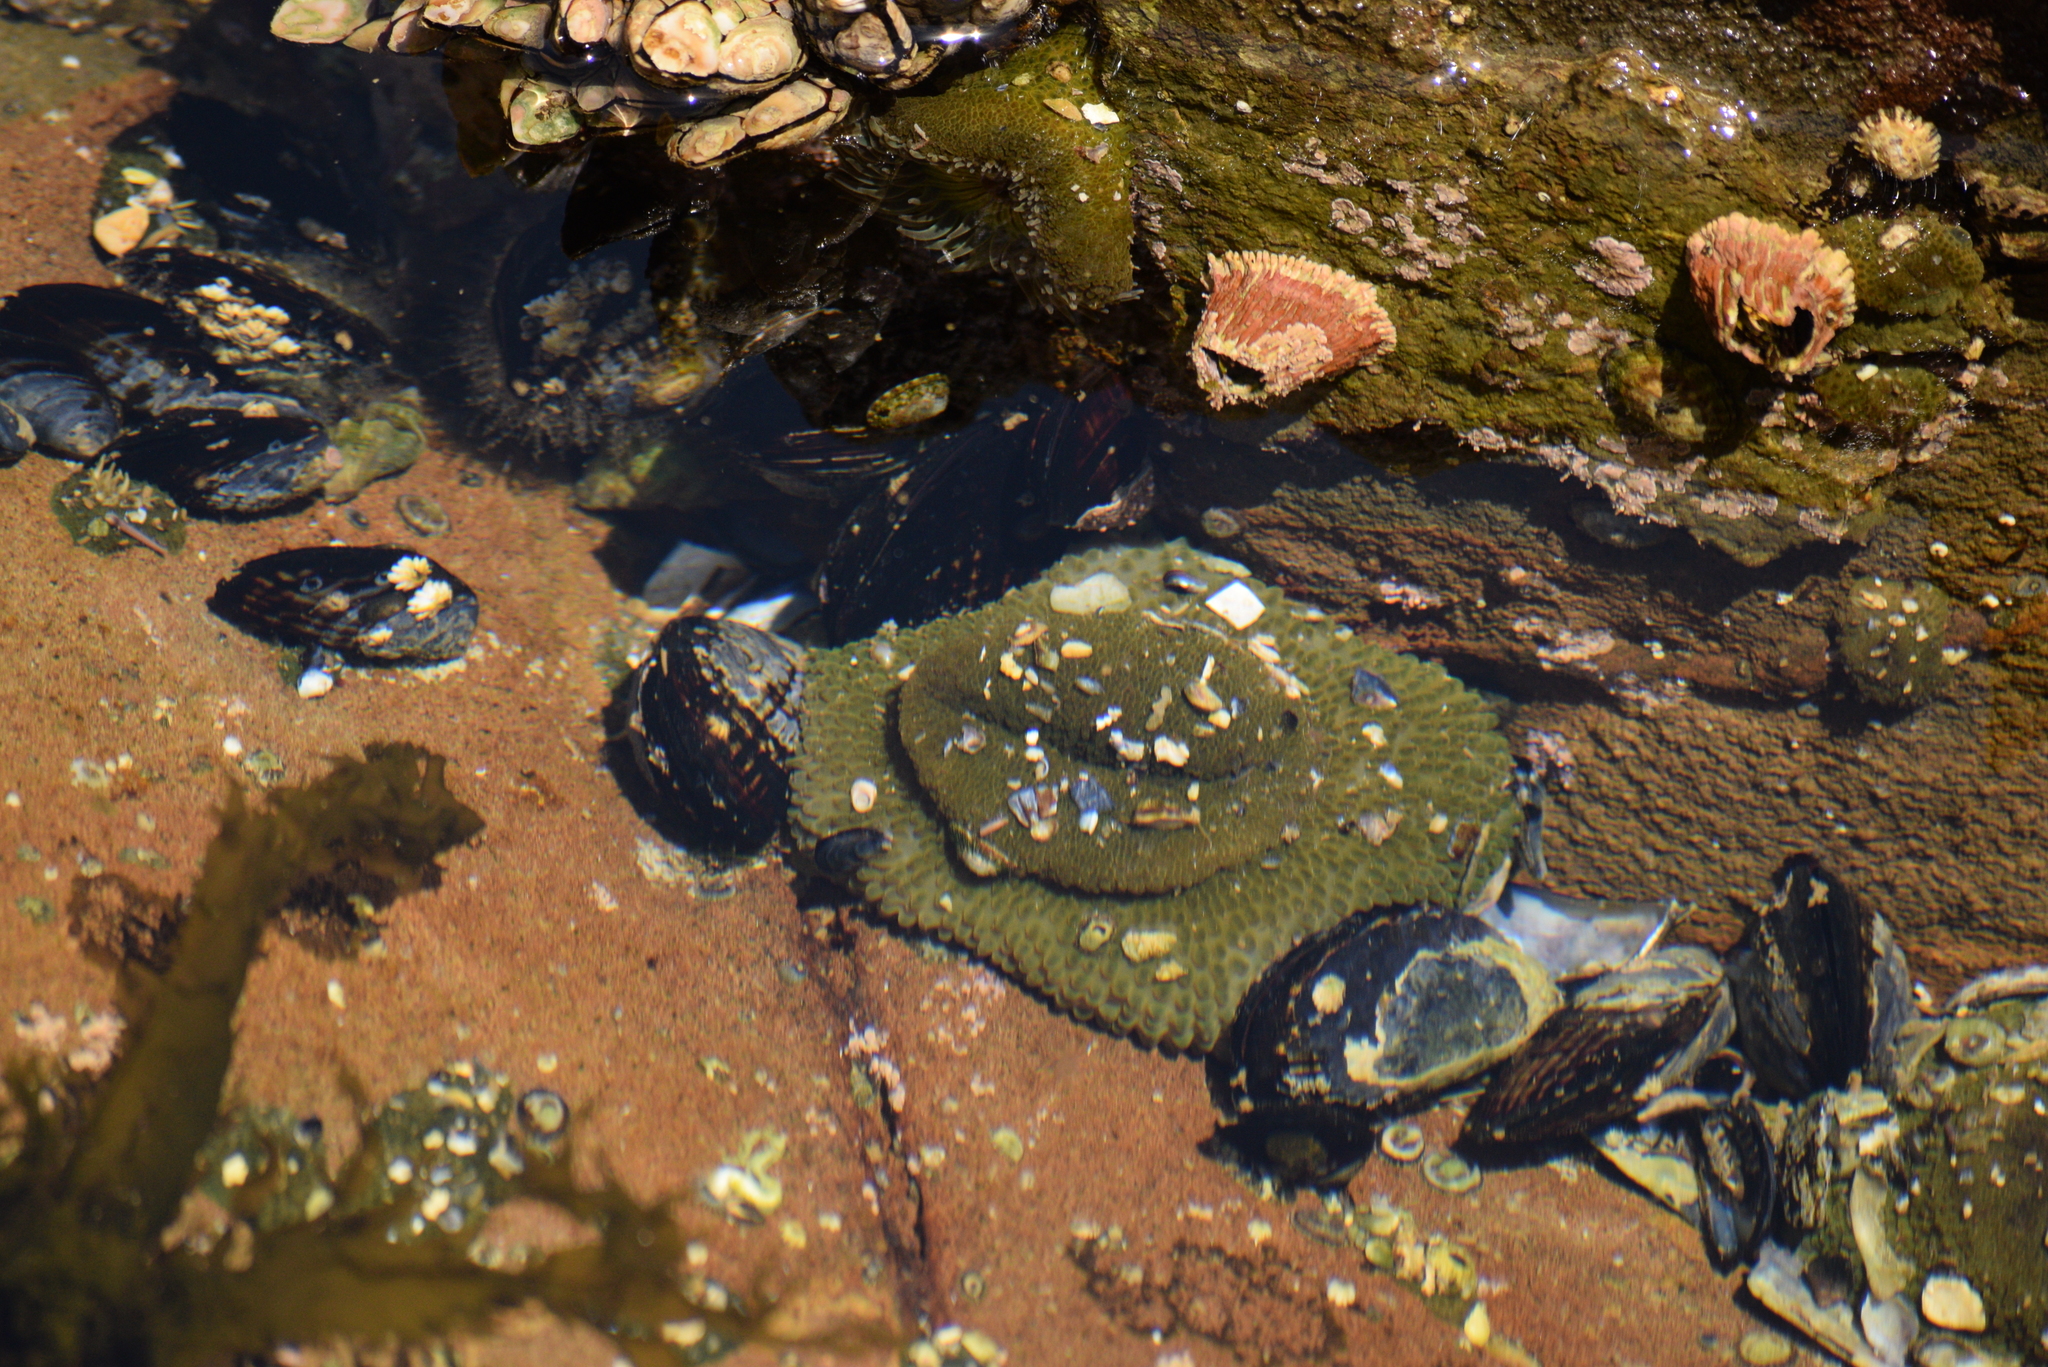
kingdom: Animalia
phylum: Cnidaria
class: Anthozoa
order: Actiniaria
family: Actiniidae
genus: Anthopleura
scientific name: Anthopleura elegantissima
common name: Clonal anemone
